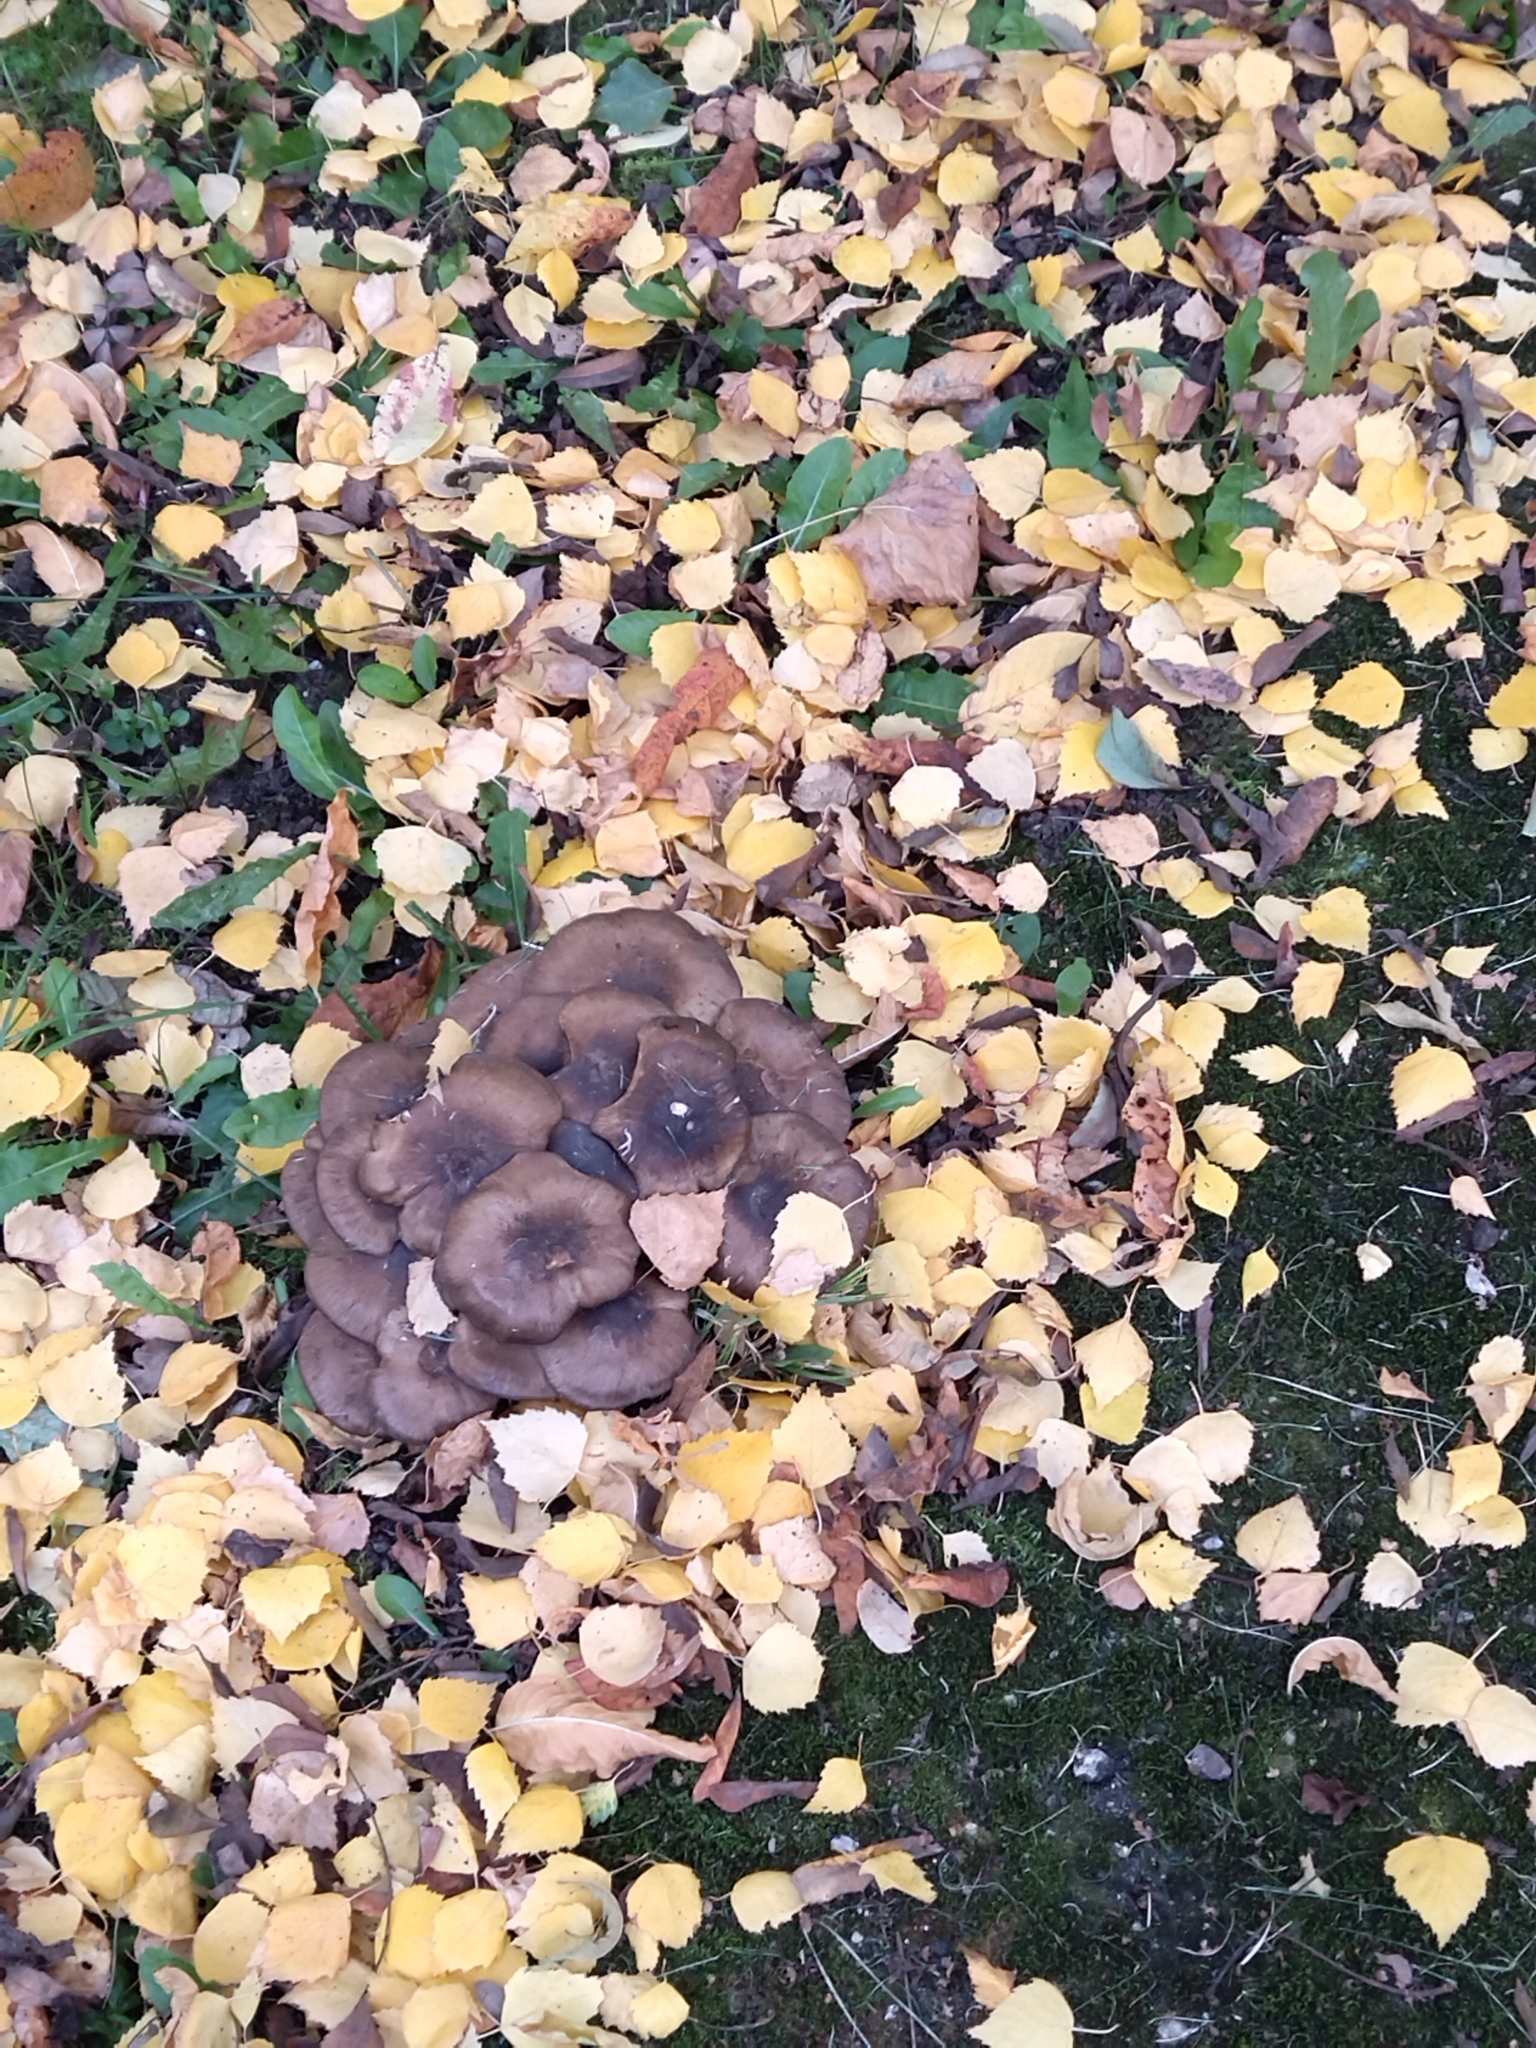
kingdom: Fungi
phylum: Basidiomycota
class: Agaricomycetes
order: Agaricales
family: Lyophyllaceae
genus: Lyophyllum
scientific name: Lyophyllum decastes
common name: Clustered domecap
